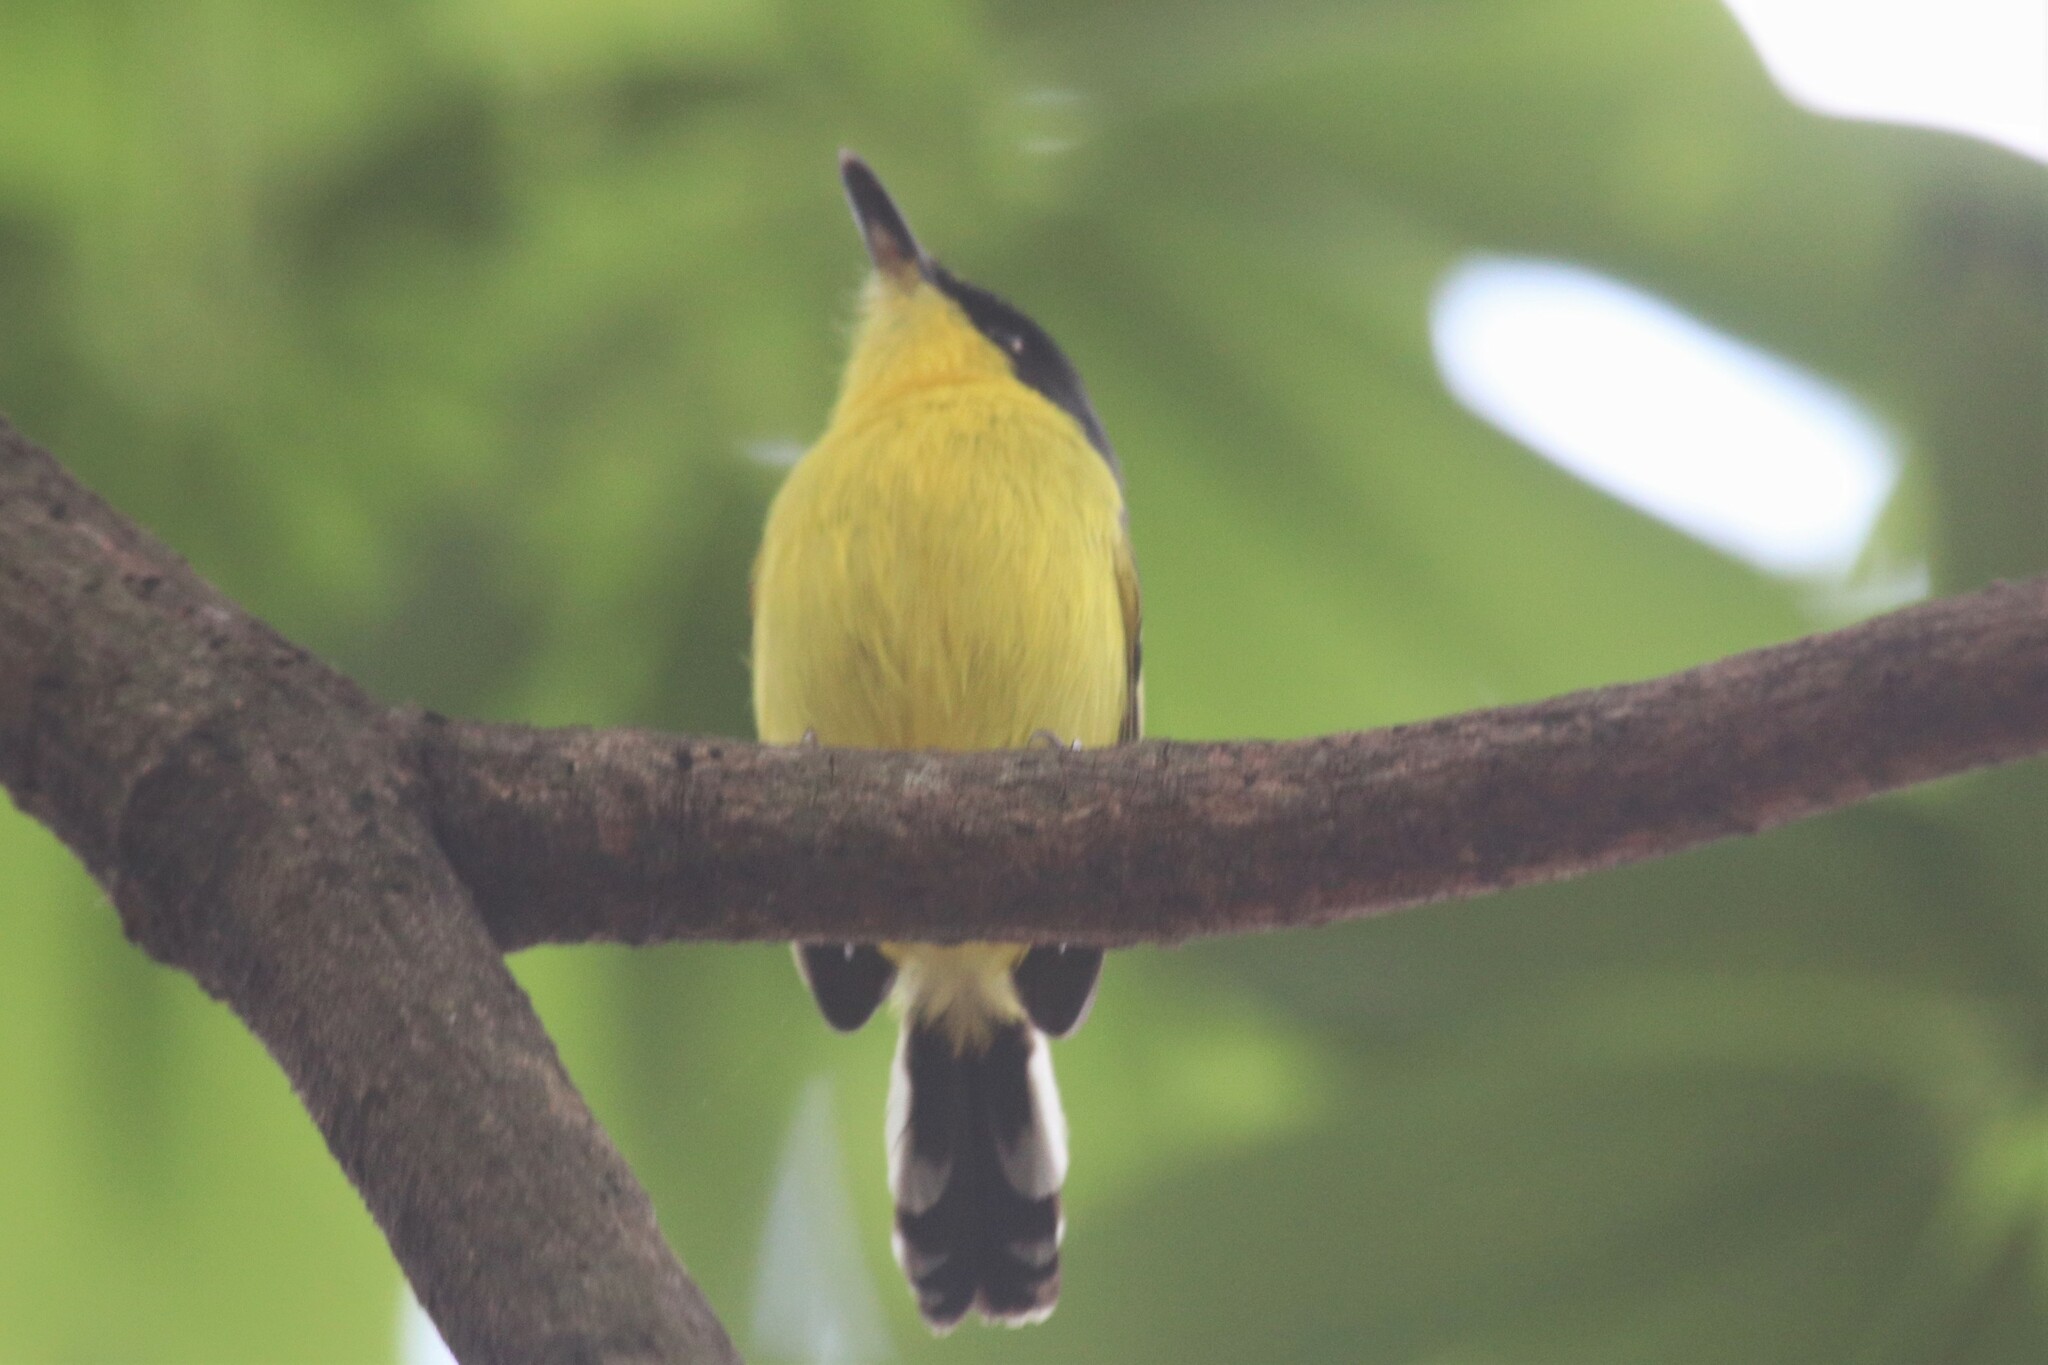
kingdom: Animalia
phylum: Chordata
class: Aves
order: Passeriformes
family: Tyrannidae
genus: Todirostrum
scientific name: Todirostrum cinereum
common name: Common tody-flycatcher
